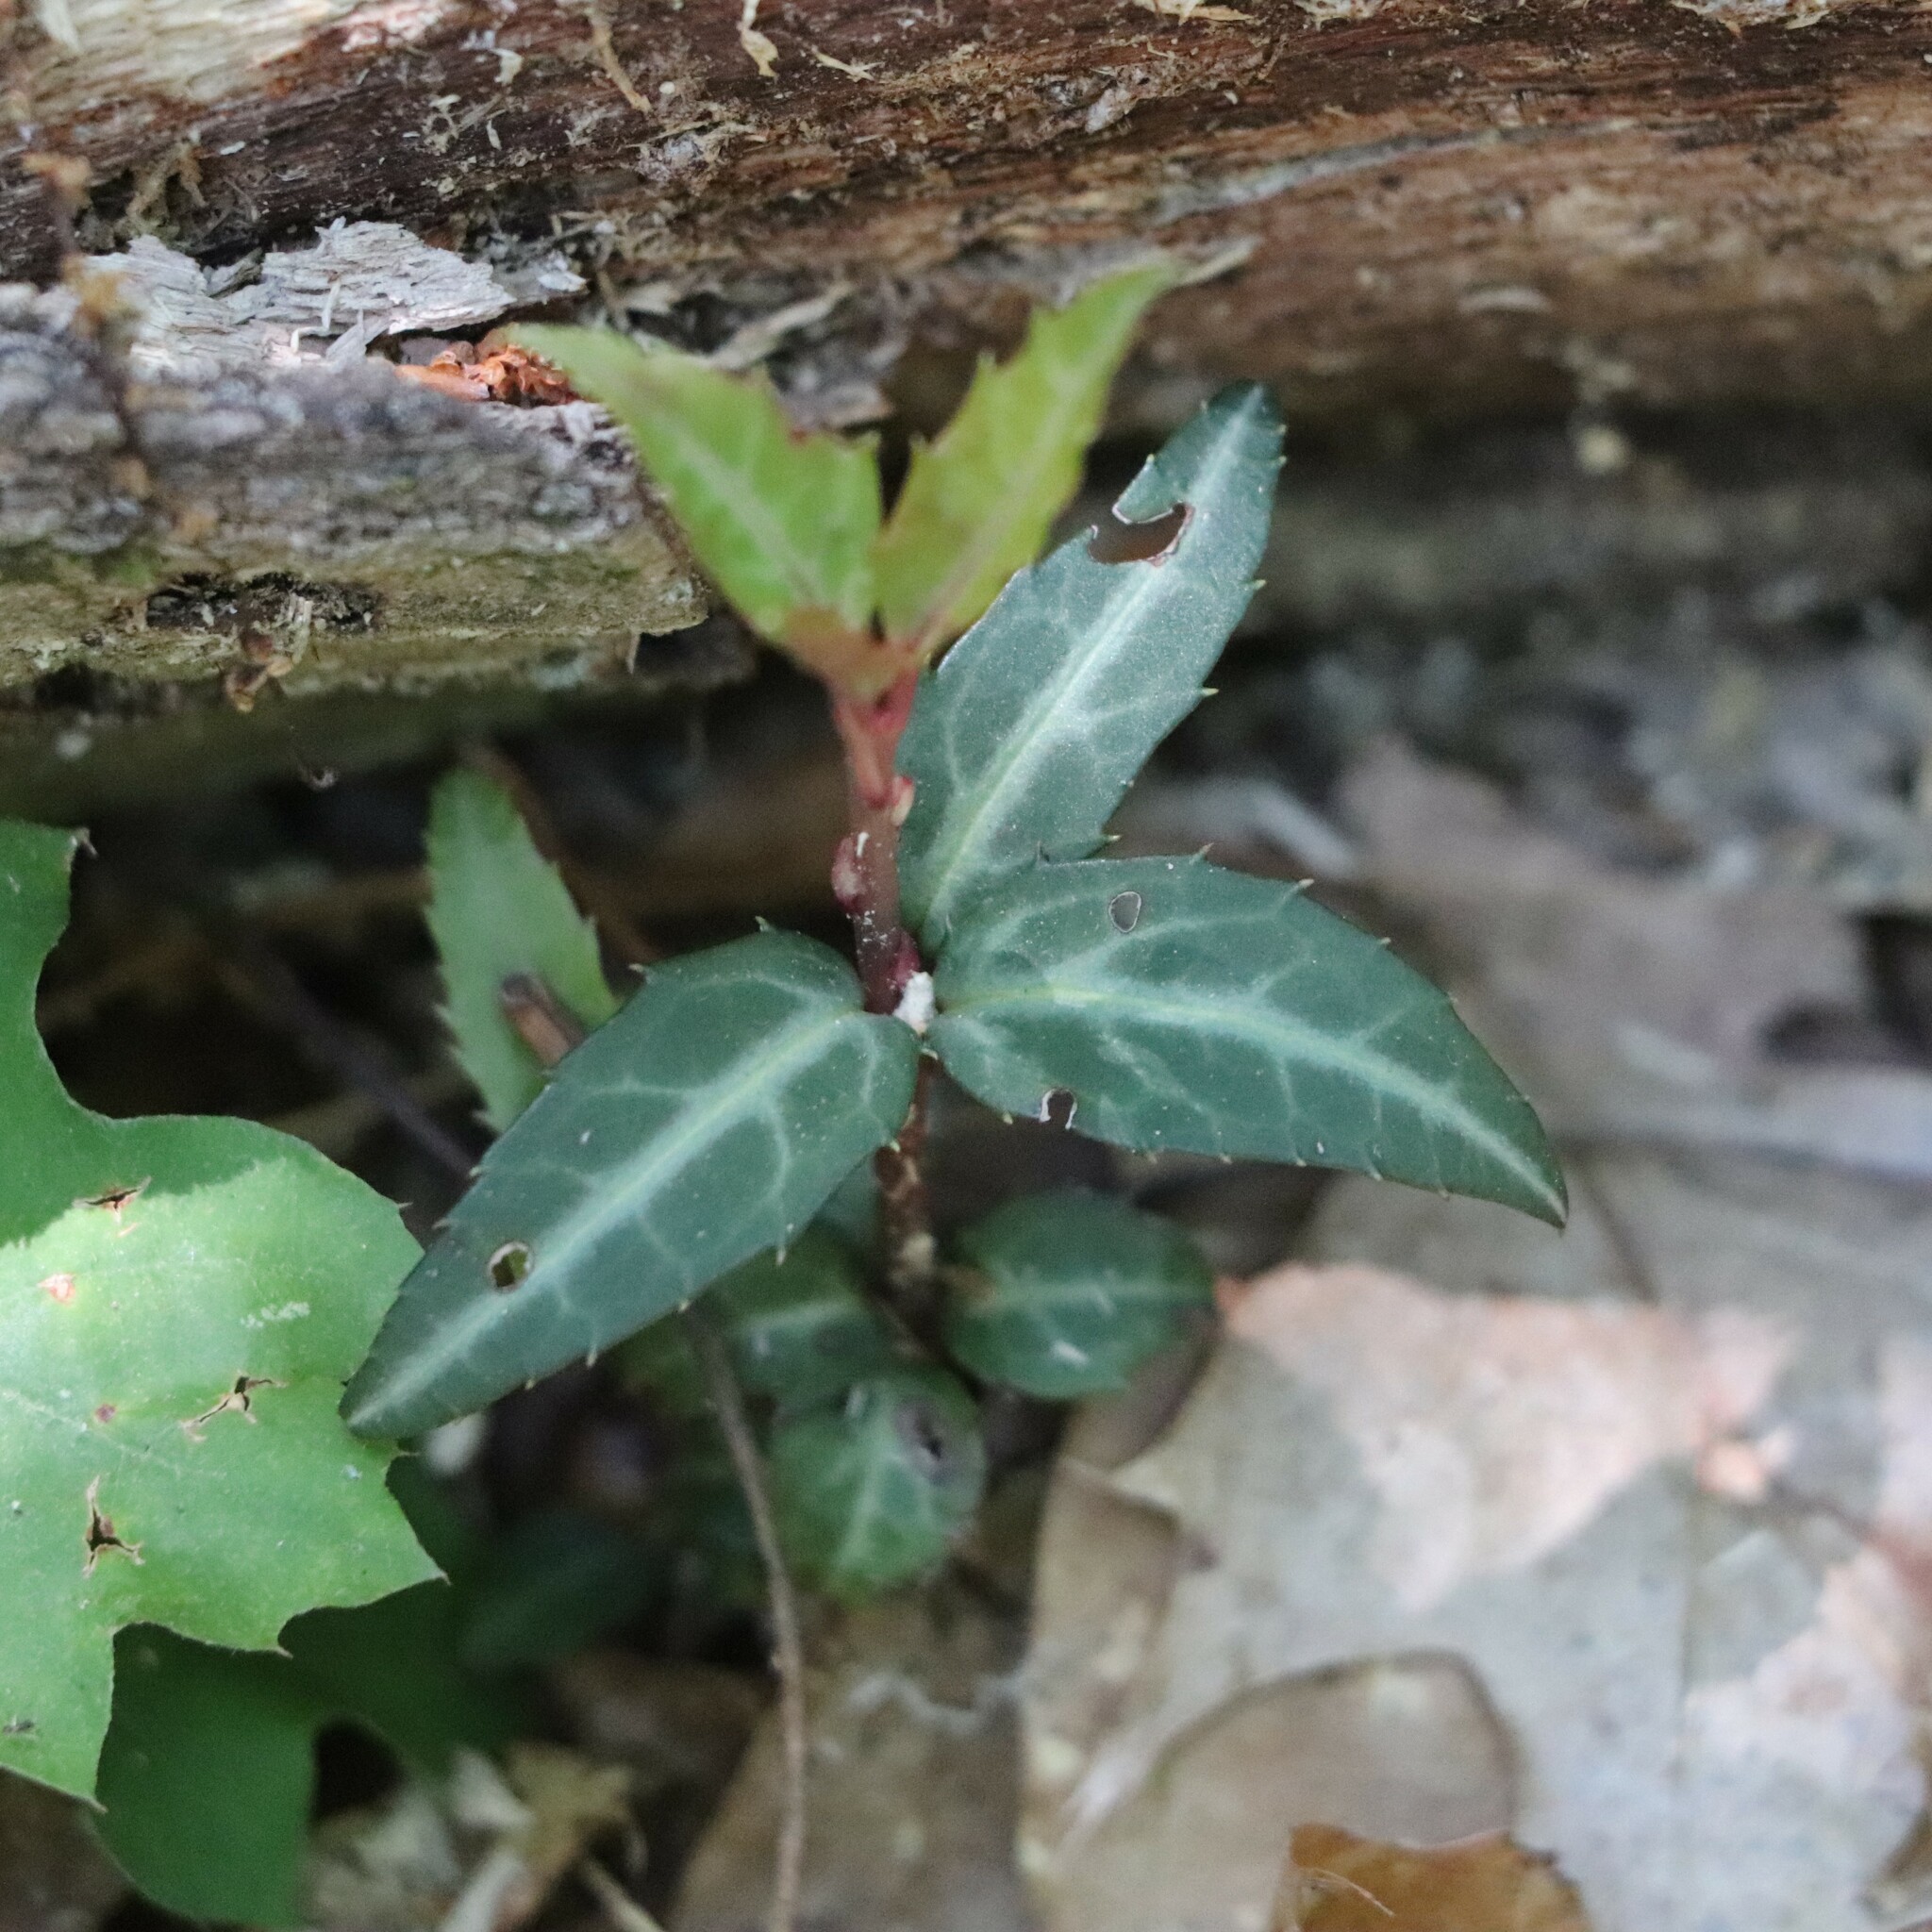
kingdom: Plantae
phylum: Tracheophyta
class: Magnoliopsida
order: Ericales
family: Ericaceae
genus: Chimaphila
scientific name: Chimaphila maculata
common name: Spotted pipsissewa
